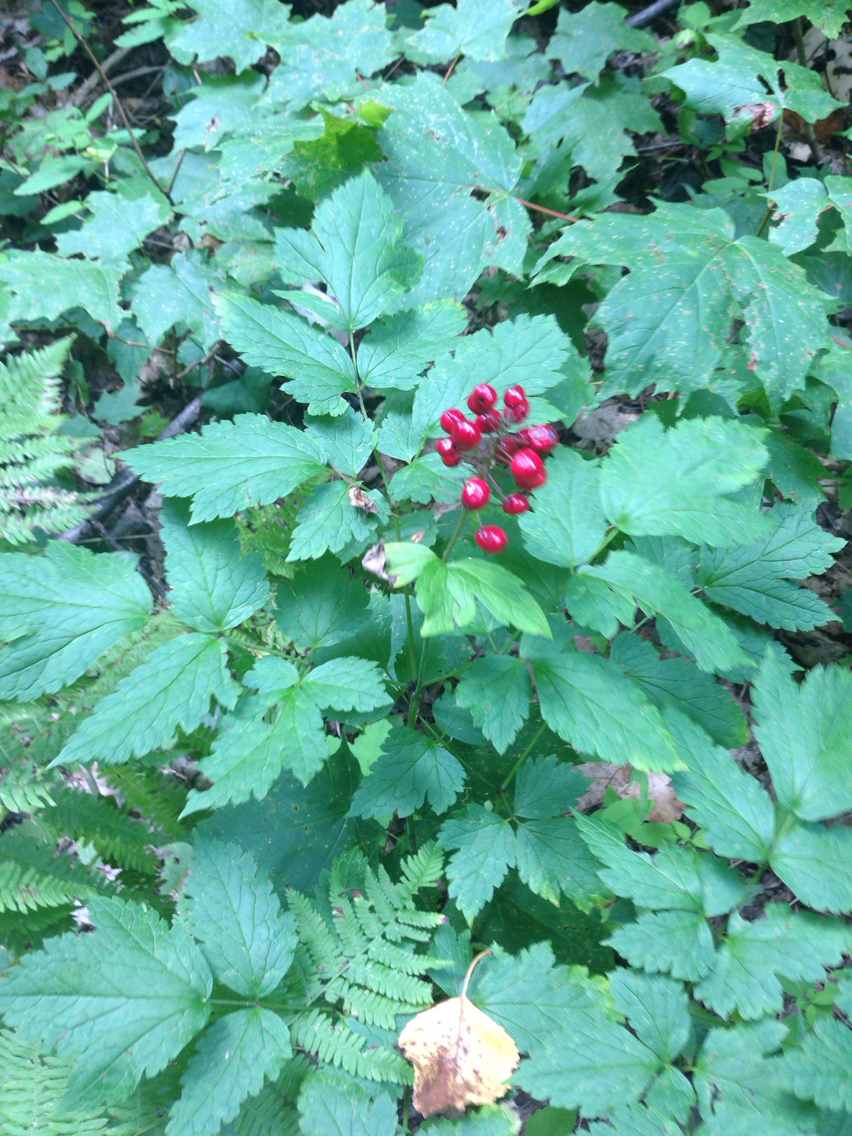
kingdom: Plantae
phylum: Tracheophyta
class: Magnoliopsida
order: Ranunculales
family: Ranunculaceae
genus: Actaea
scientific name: Actaea rubra
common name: Red baneberry
